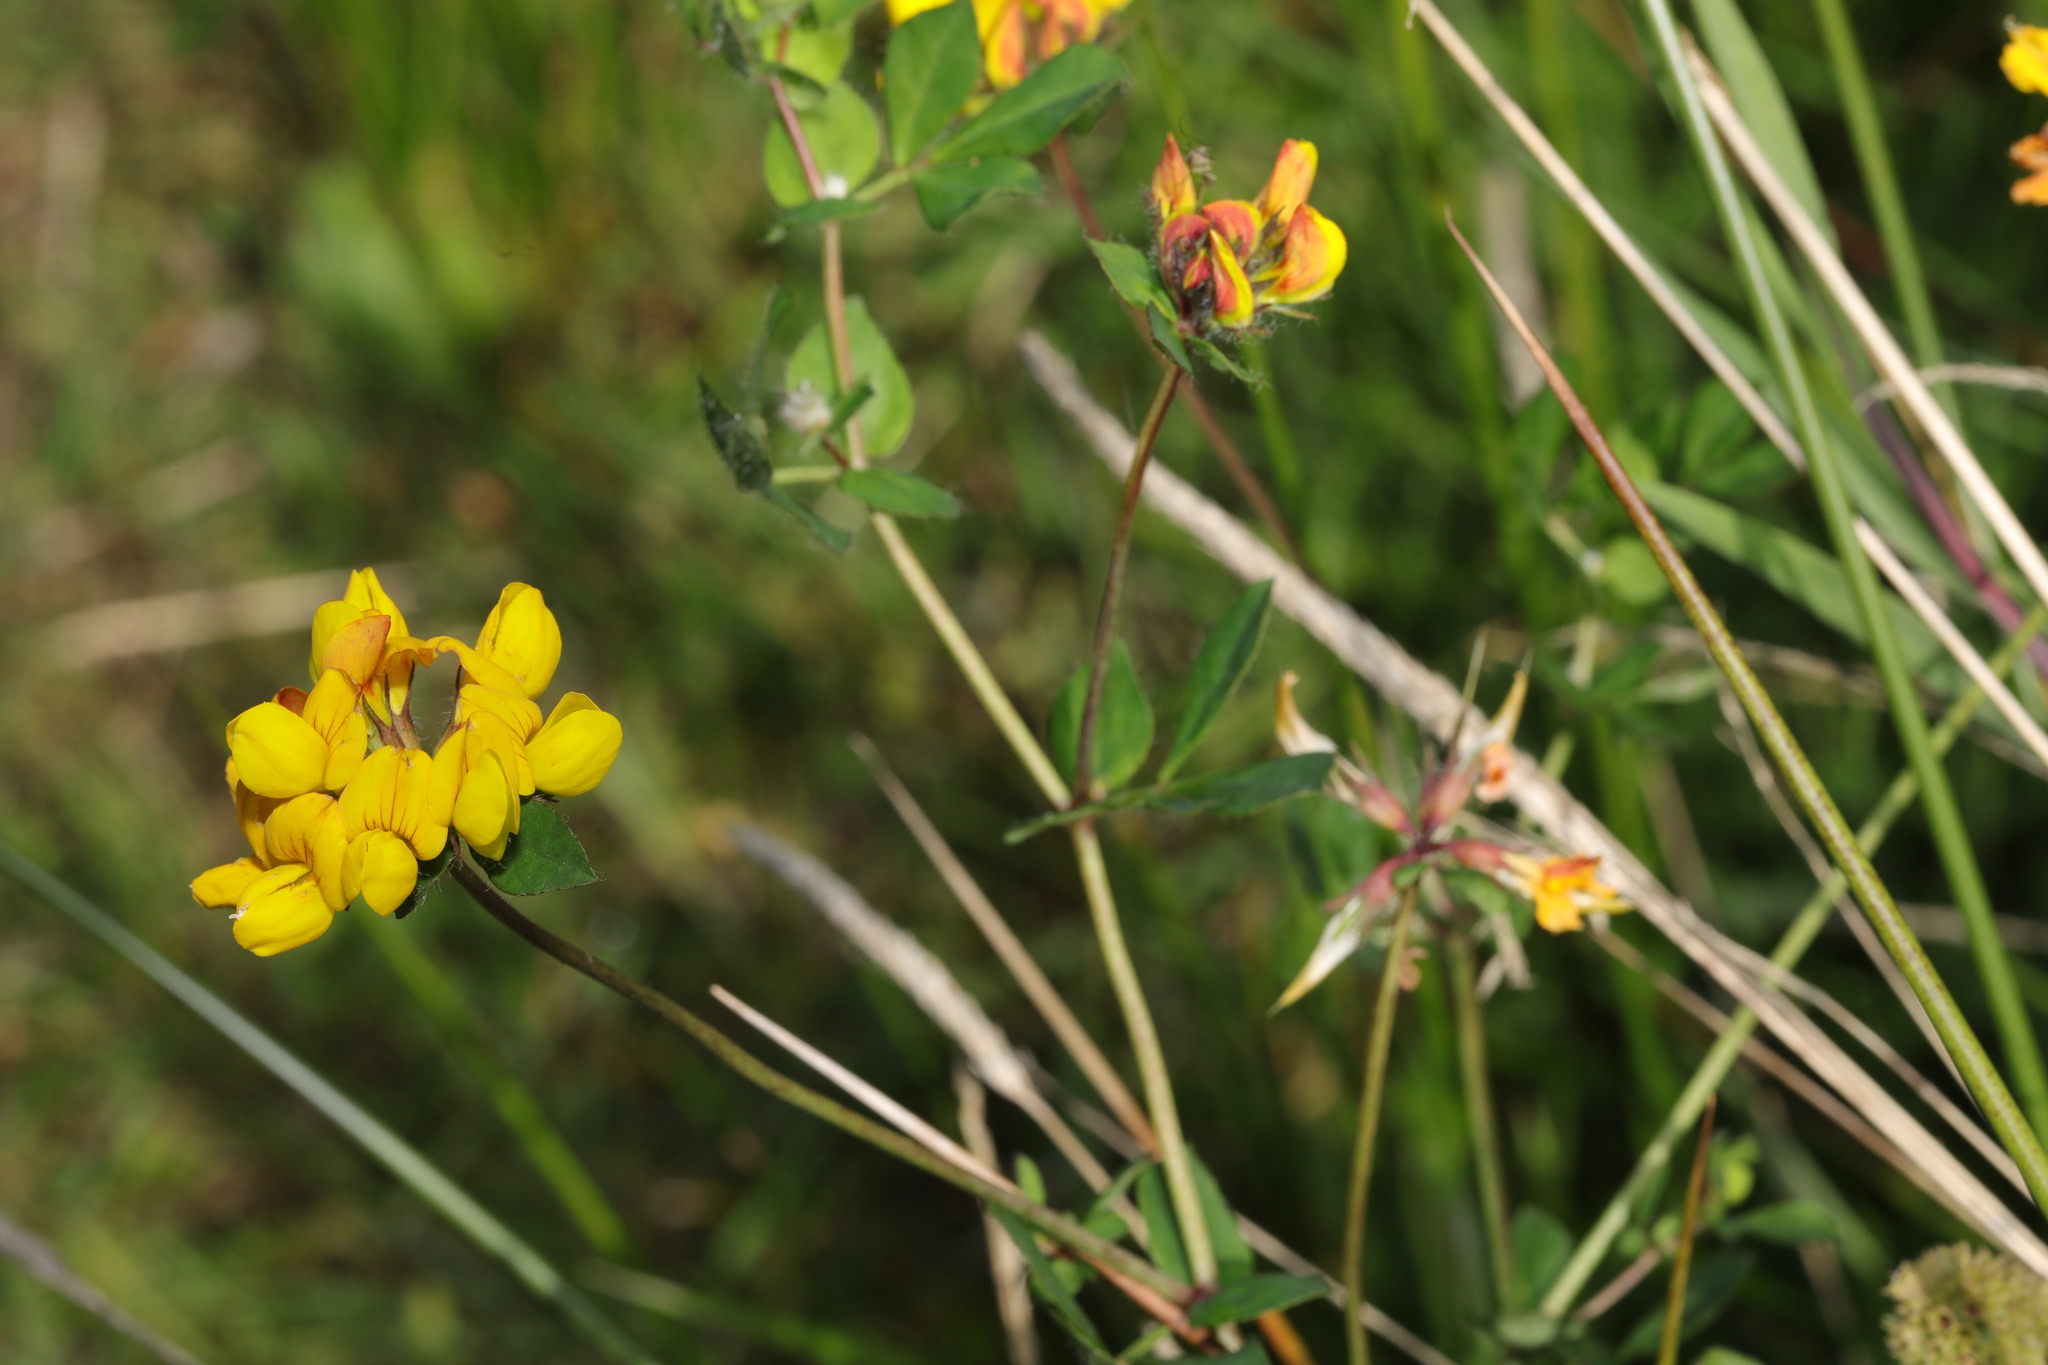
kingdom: Plantae
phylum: Tracheophyta
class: Magnoliopsida
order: Fabales
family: Fabaceae
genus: Lotus
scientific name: Lotus pedunculatus
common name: Greater birdsfoot-trefoil
